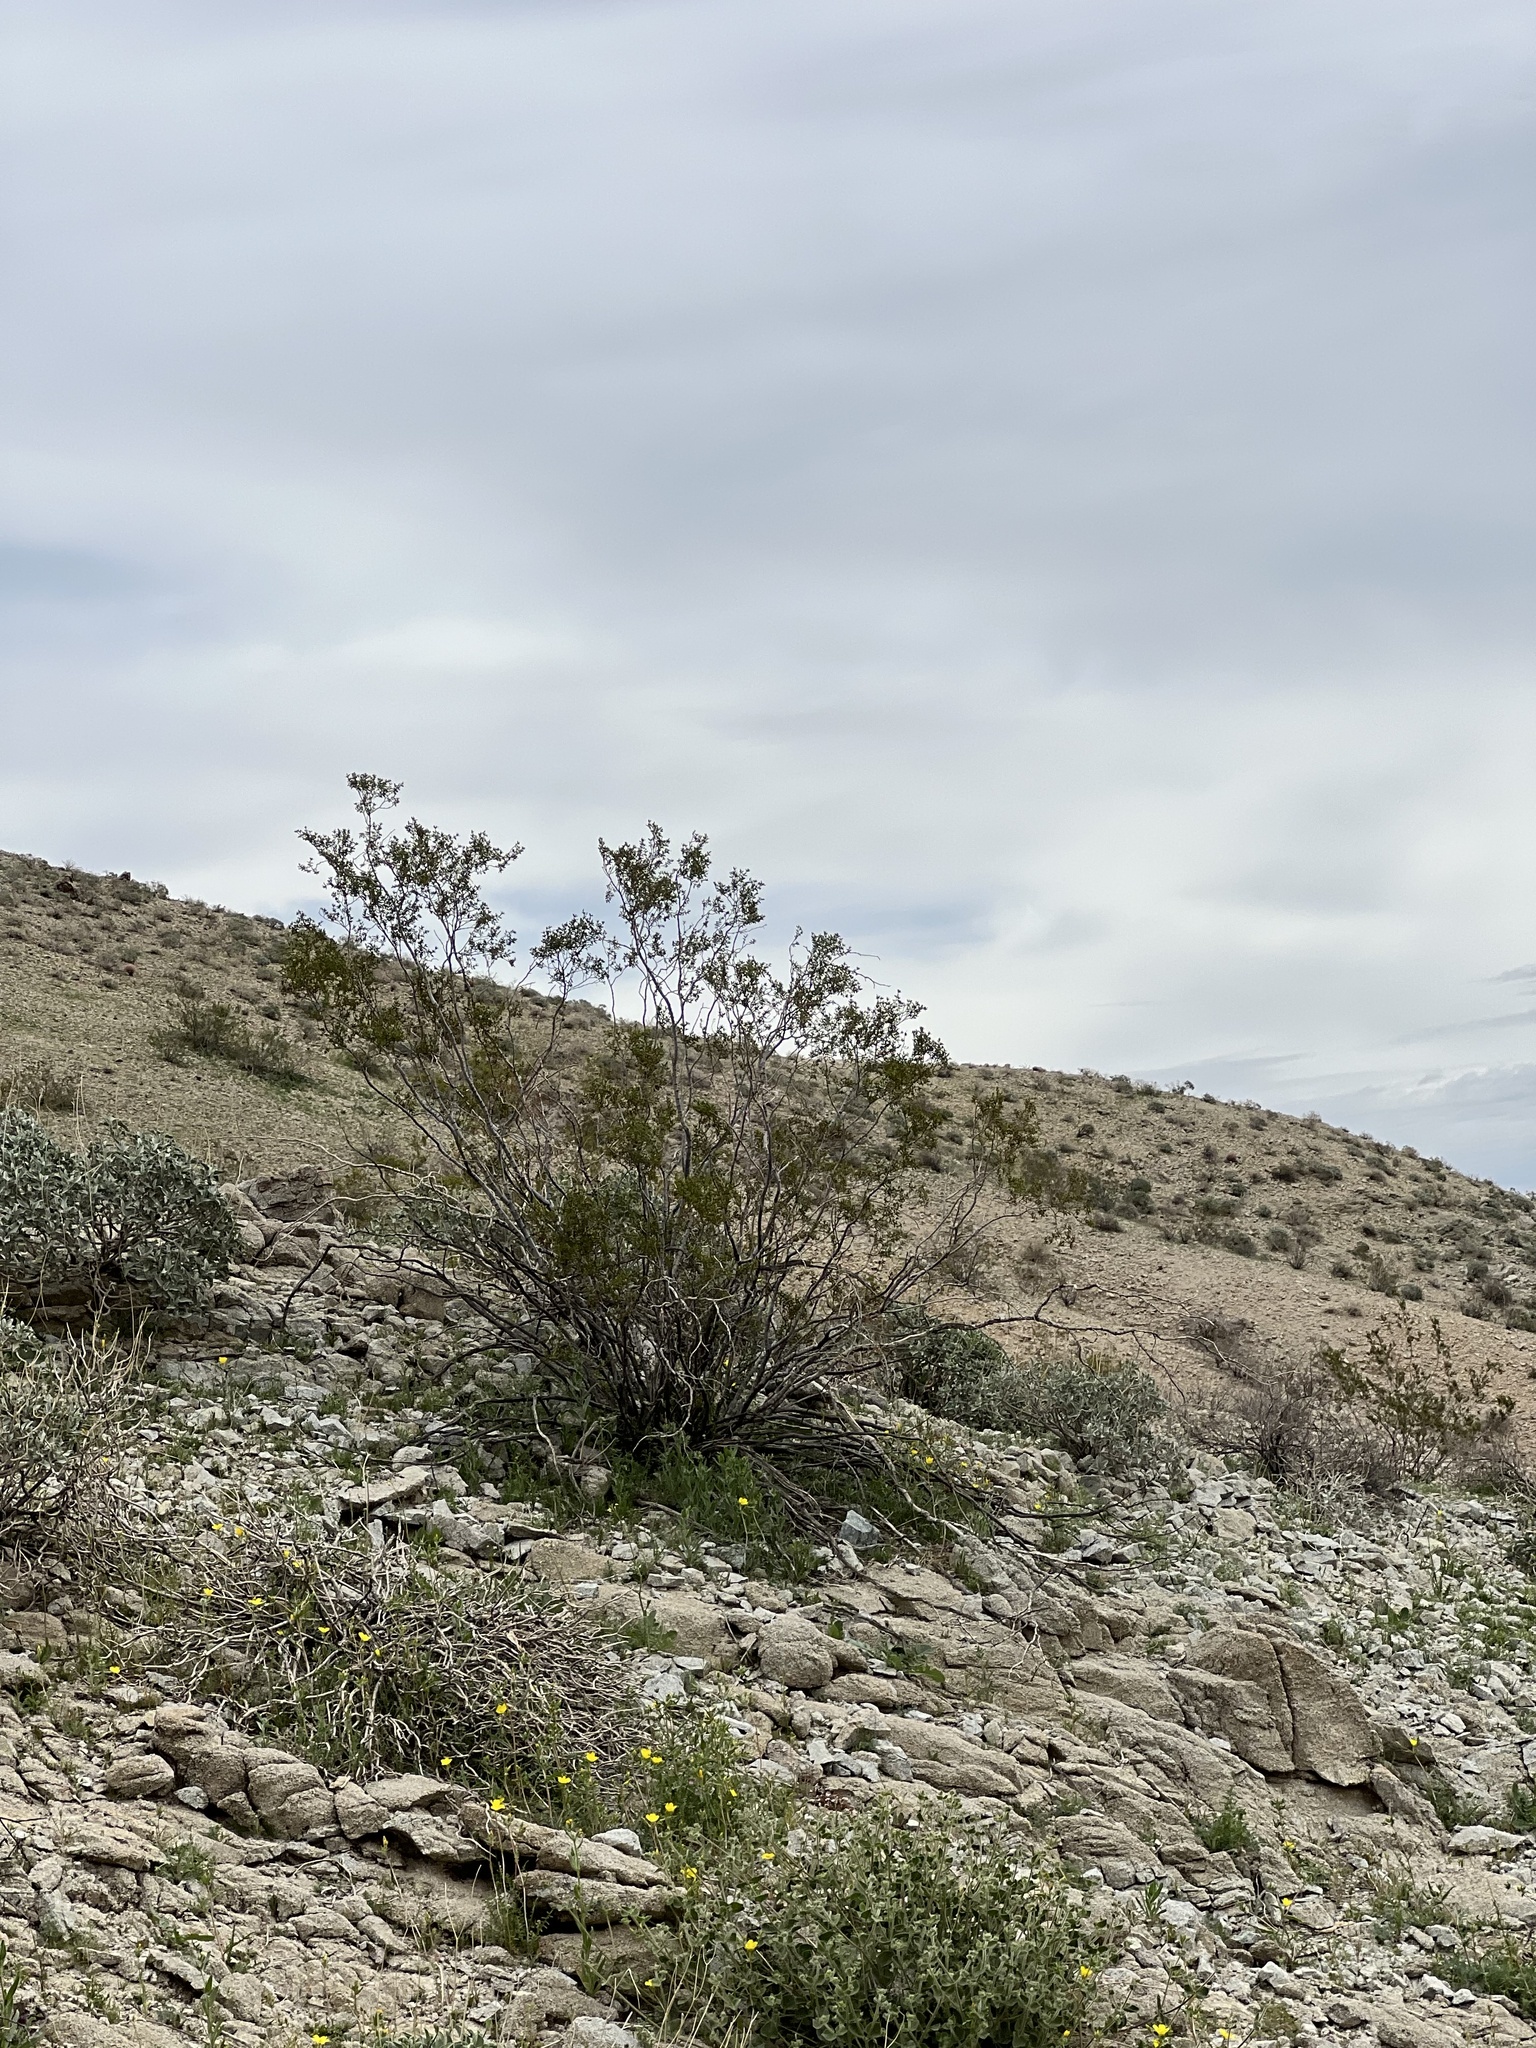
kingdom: Plantae
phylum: Tracheophyta
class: Magnoliopsida
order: Zygophyllales
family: Zygophyllaceae
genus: Larrea
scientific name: Larrea tridentata
